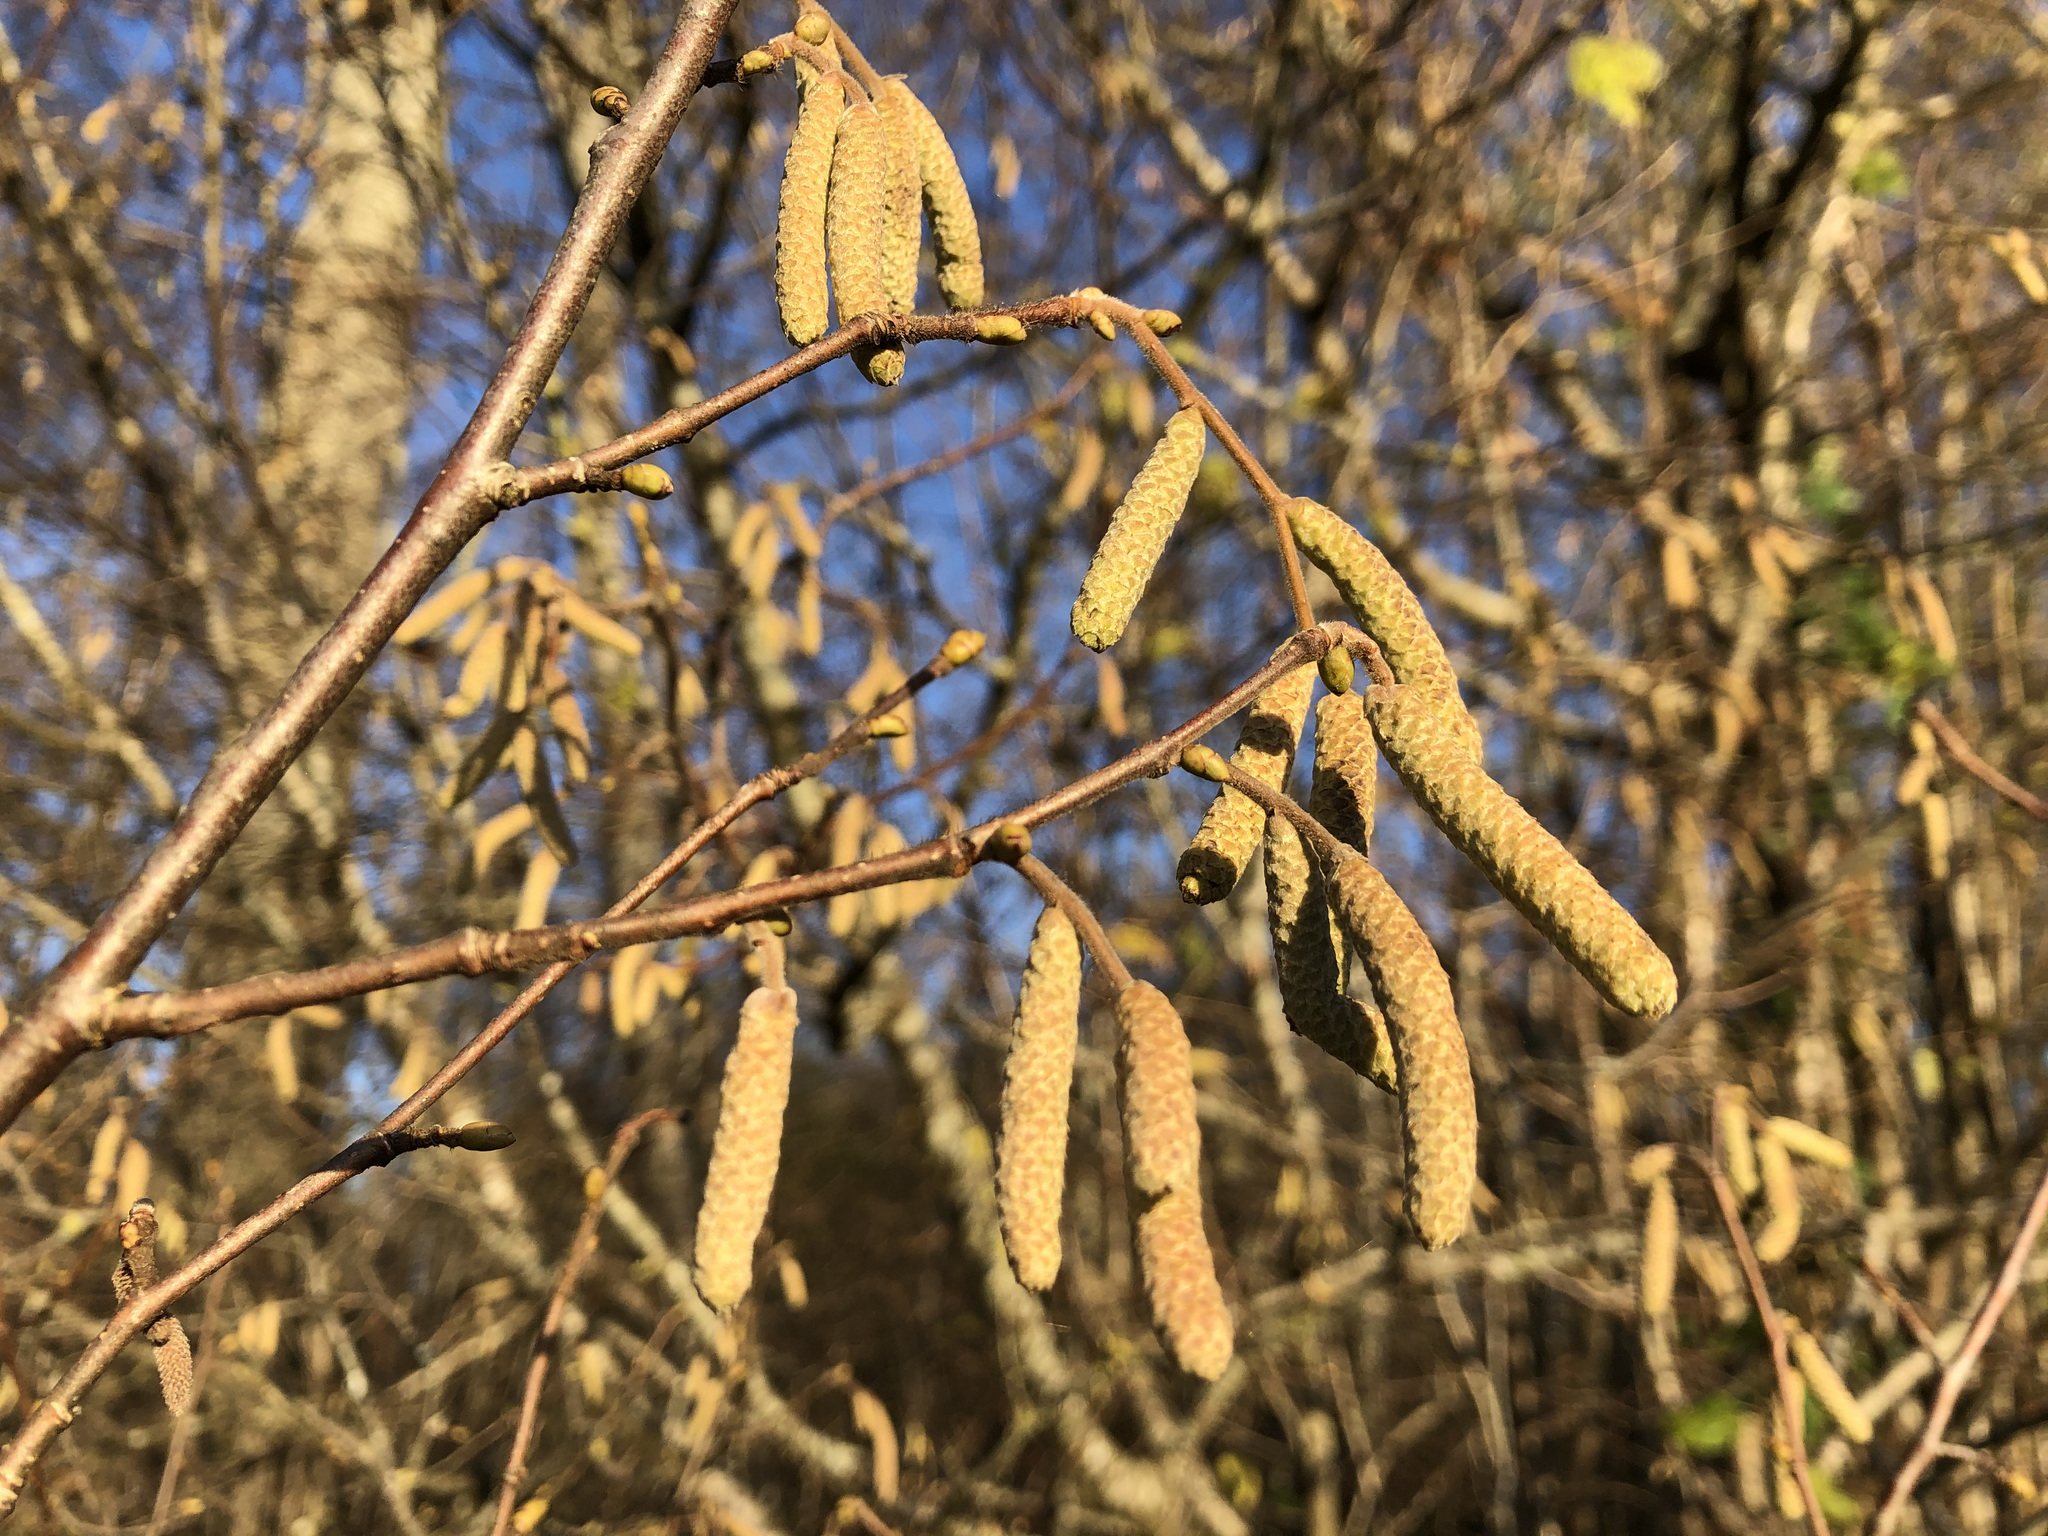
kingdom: Plantae
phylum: Tracheophyta
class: Magnoliopsida
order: Fagales
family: Betulaceae
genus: Corylus
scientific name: Corylus avellana
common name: European hazel
